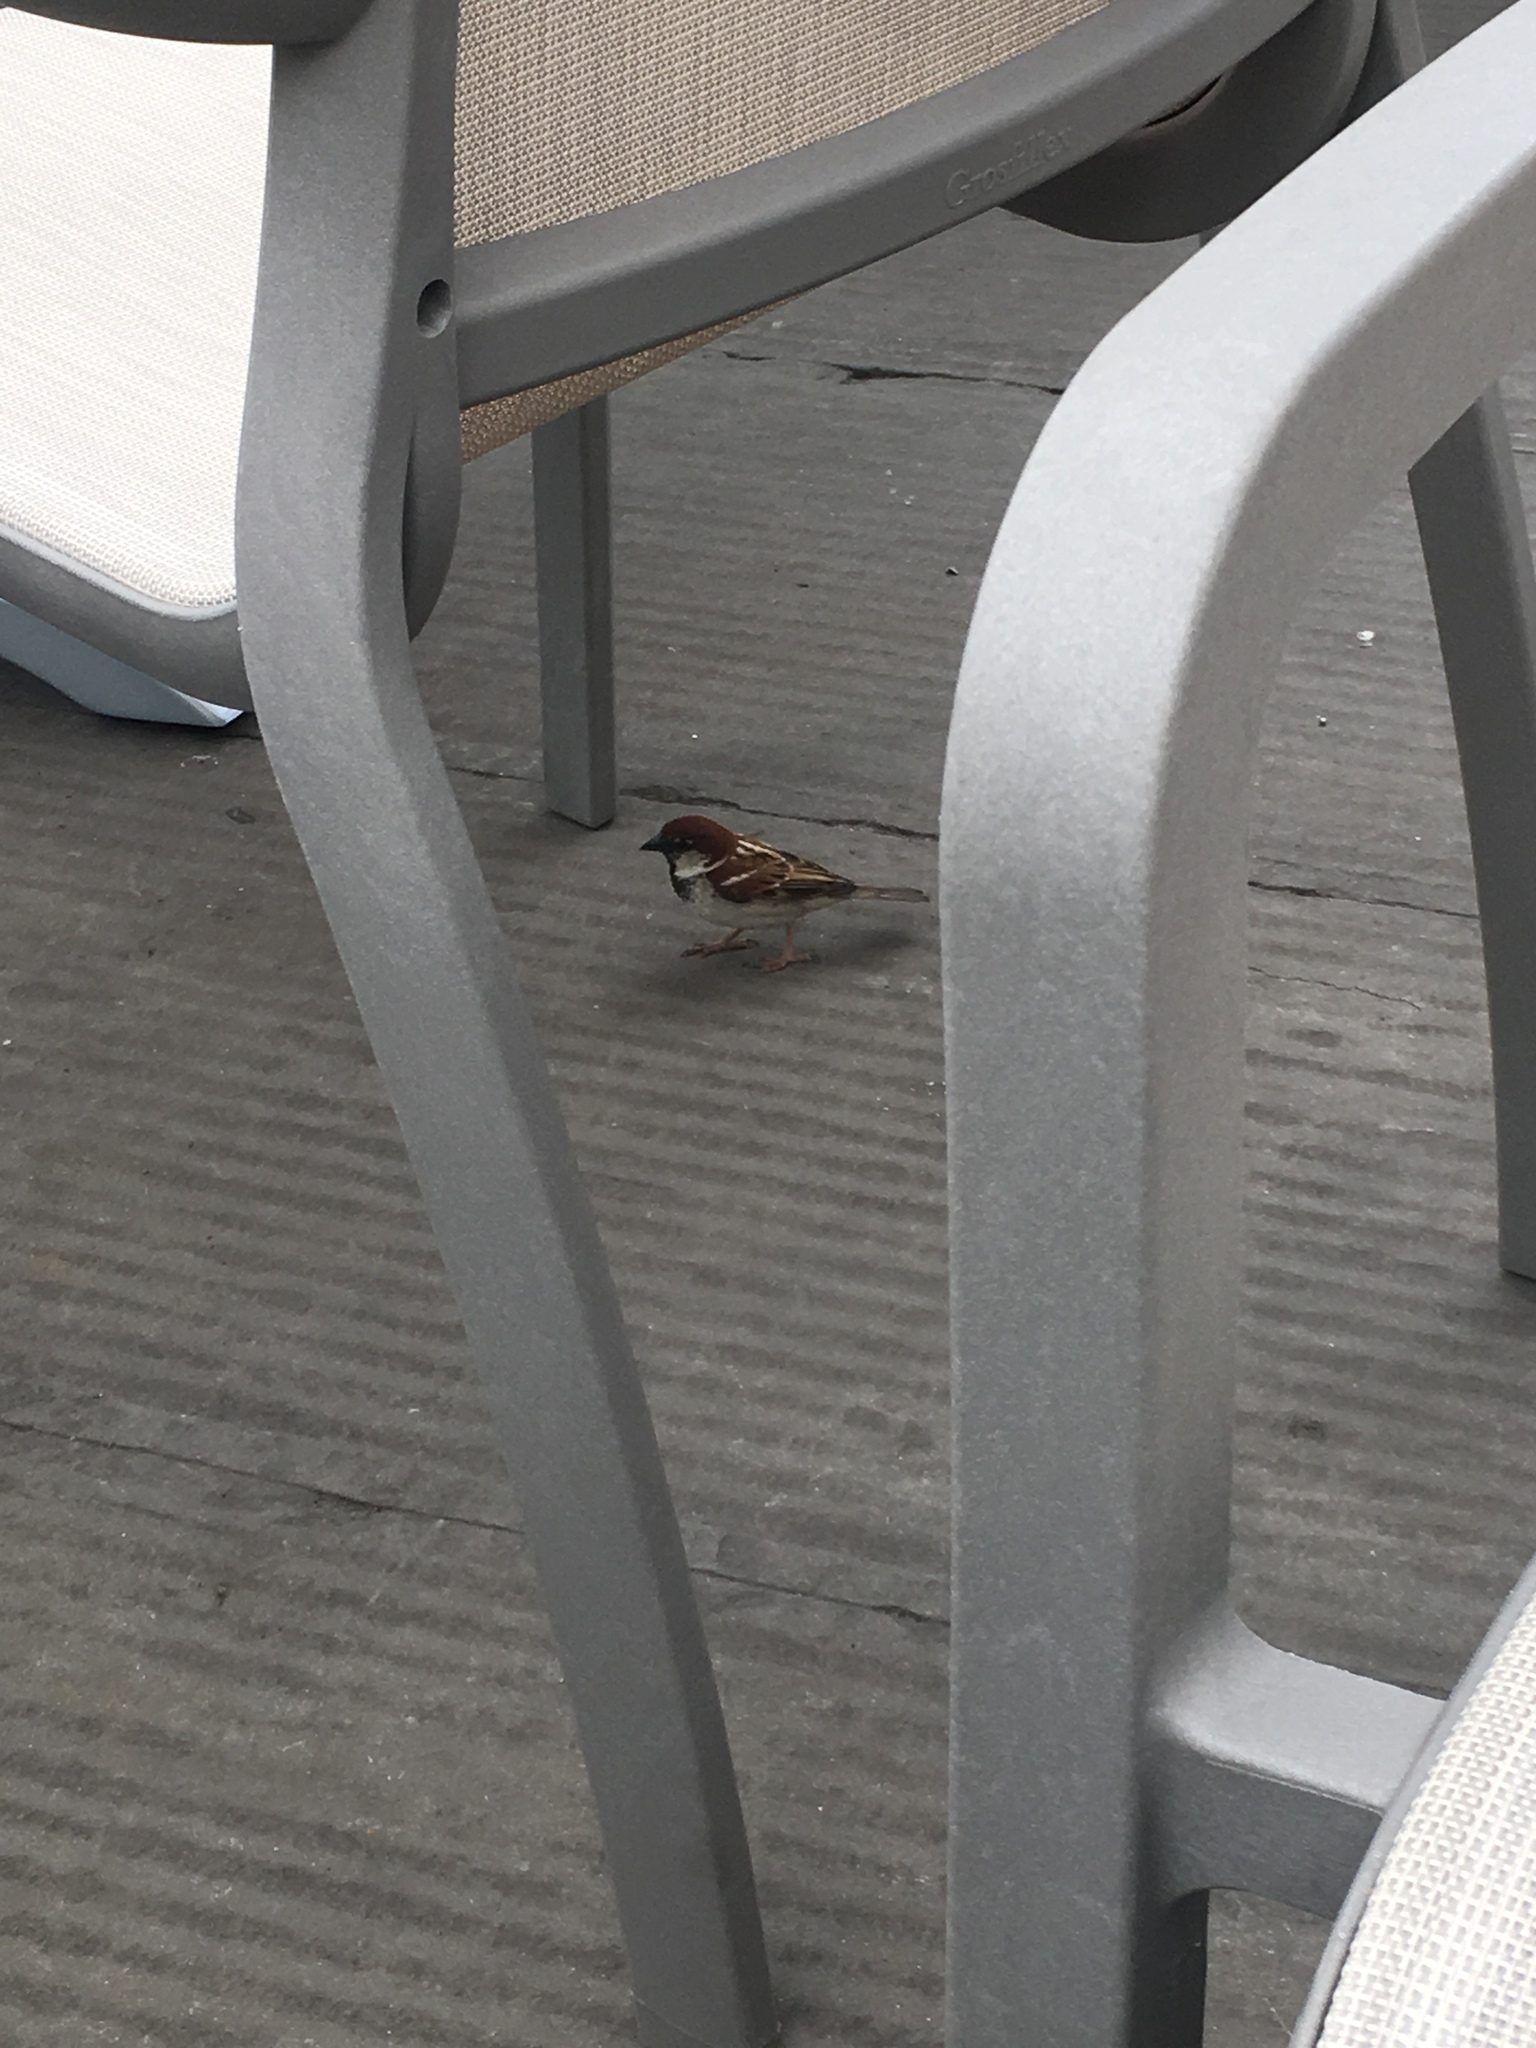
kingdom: Animalia
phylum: Chordata
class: Aves
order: Passeriformes
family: Passeridae
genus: Passer
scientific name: Passer italiae
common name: Italian sparrow
